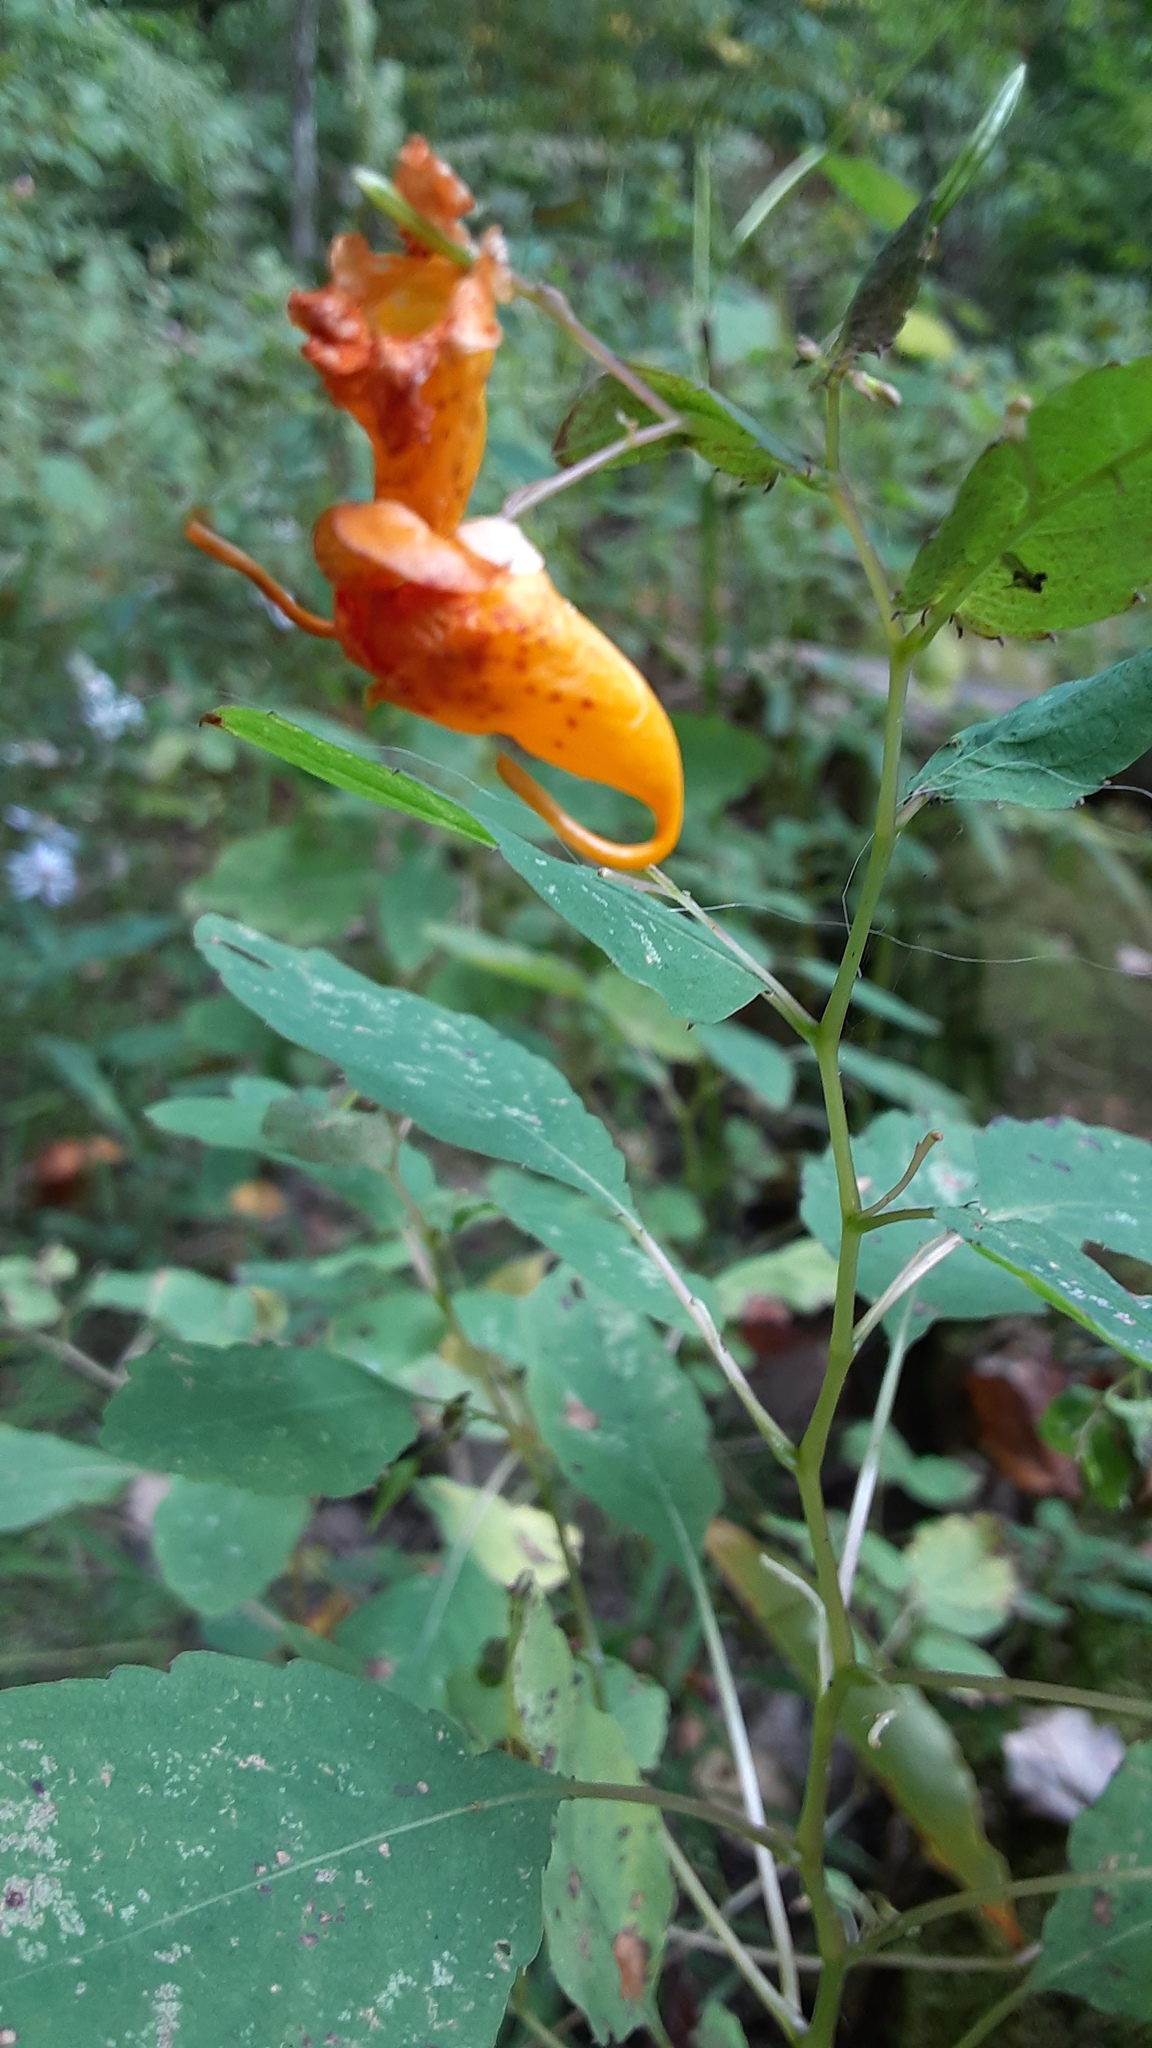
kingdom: Plantae
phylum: Tracheophyta
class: Magnoliopsida
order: Ericales
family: Balsaminaceae
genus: Impatiens
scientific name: Impatiens capensis
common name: Orange balsam
